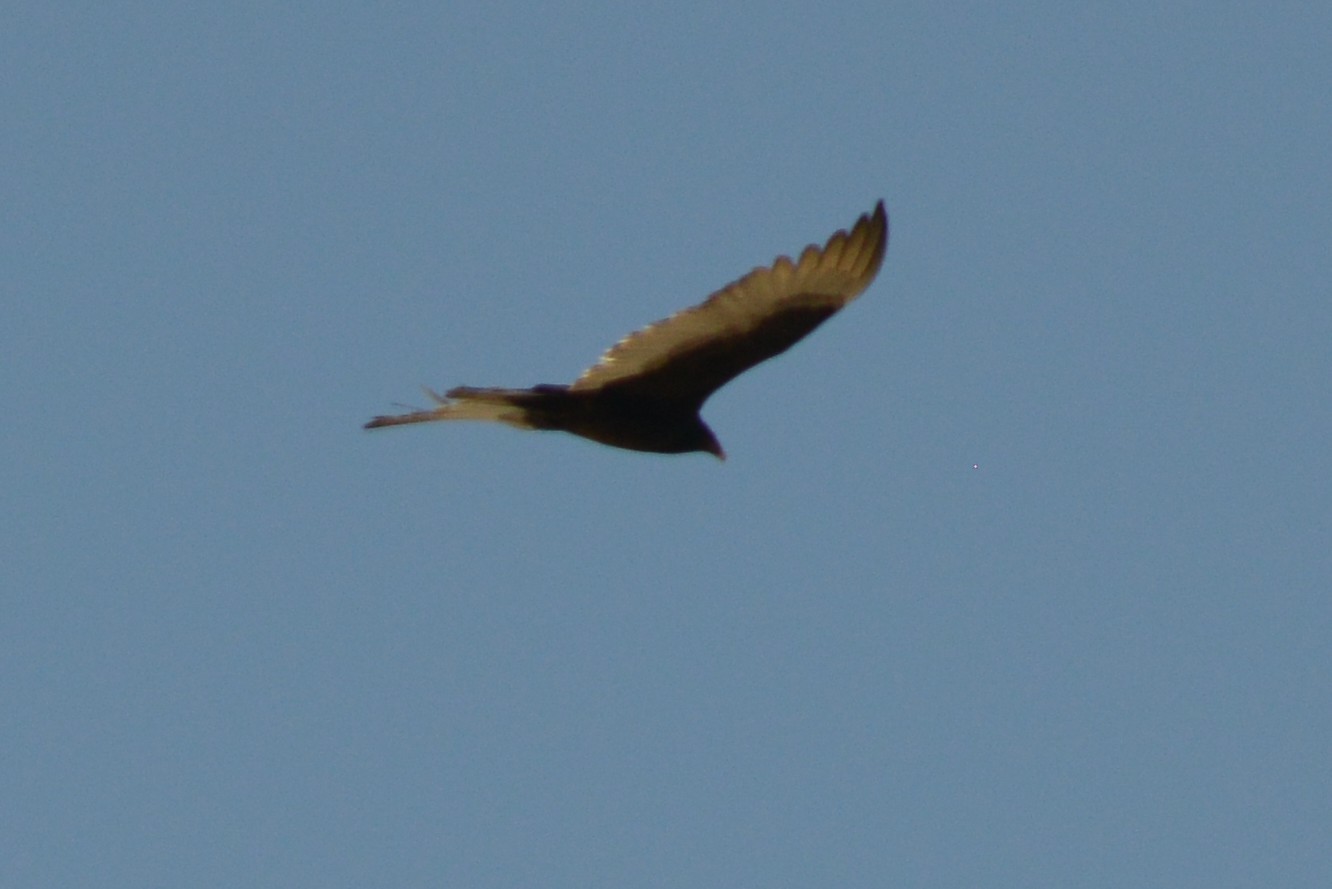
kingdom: Animalia
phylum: Chordata
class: Aves
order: Accipitriformes
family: Cathartidae
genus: Cathartes
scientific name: Cathartes aura
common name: Turkey vulture
